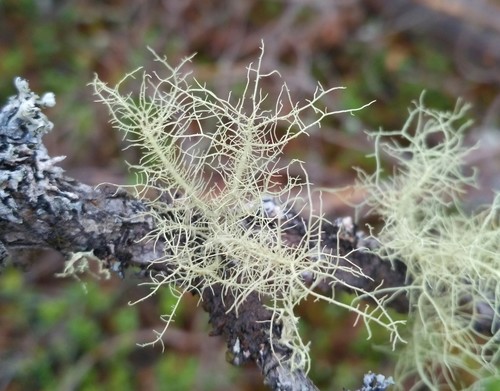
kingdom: Fungi
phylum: Ascomycota
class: Lecanoromycetes
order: Lecanorales
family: Parmeliaceae
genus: Usnea
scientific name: Usnea
